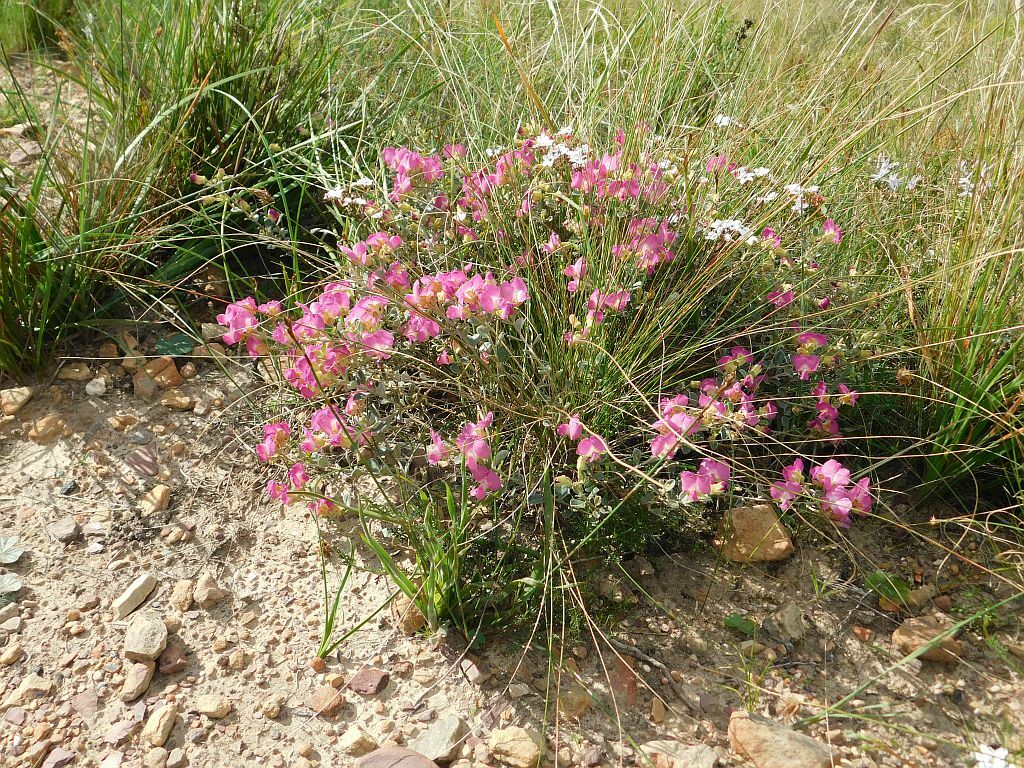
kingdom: Plantae
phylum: Tracheophyta
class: Magnoliopsida
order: Fabales
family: Fabaceae
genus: Podalyria
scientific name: Podalyria biflora
